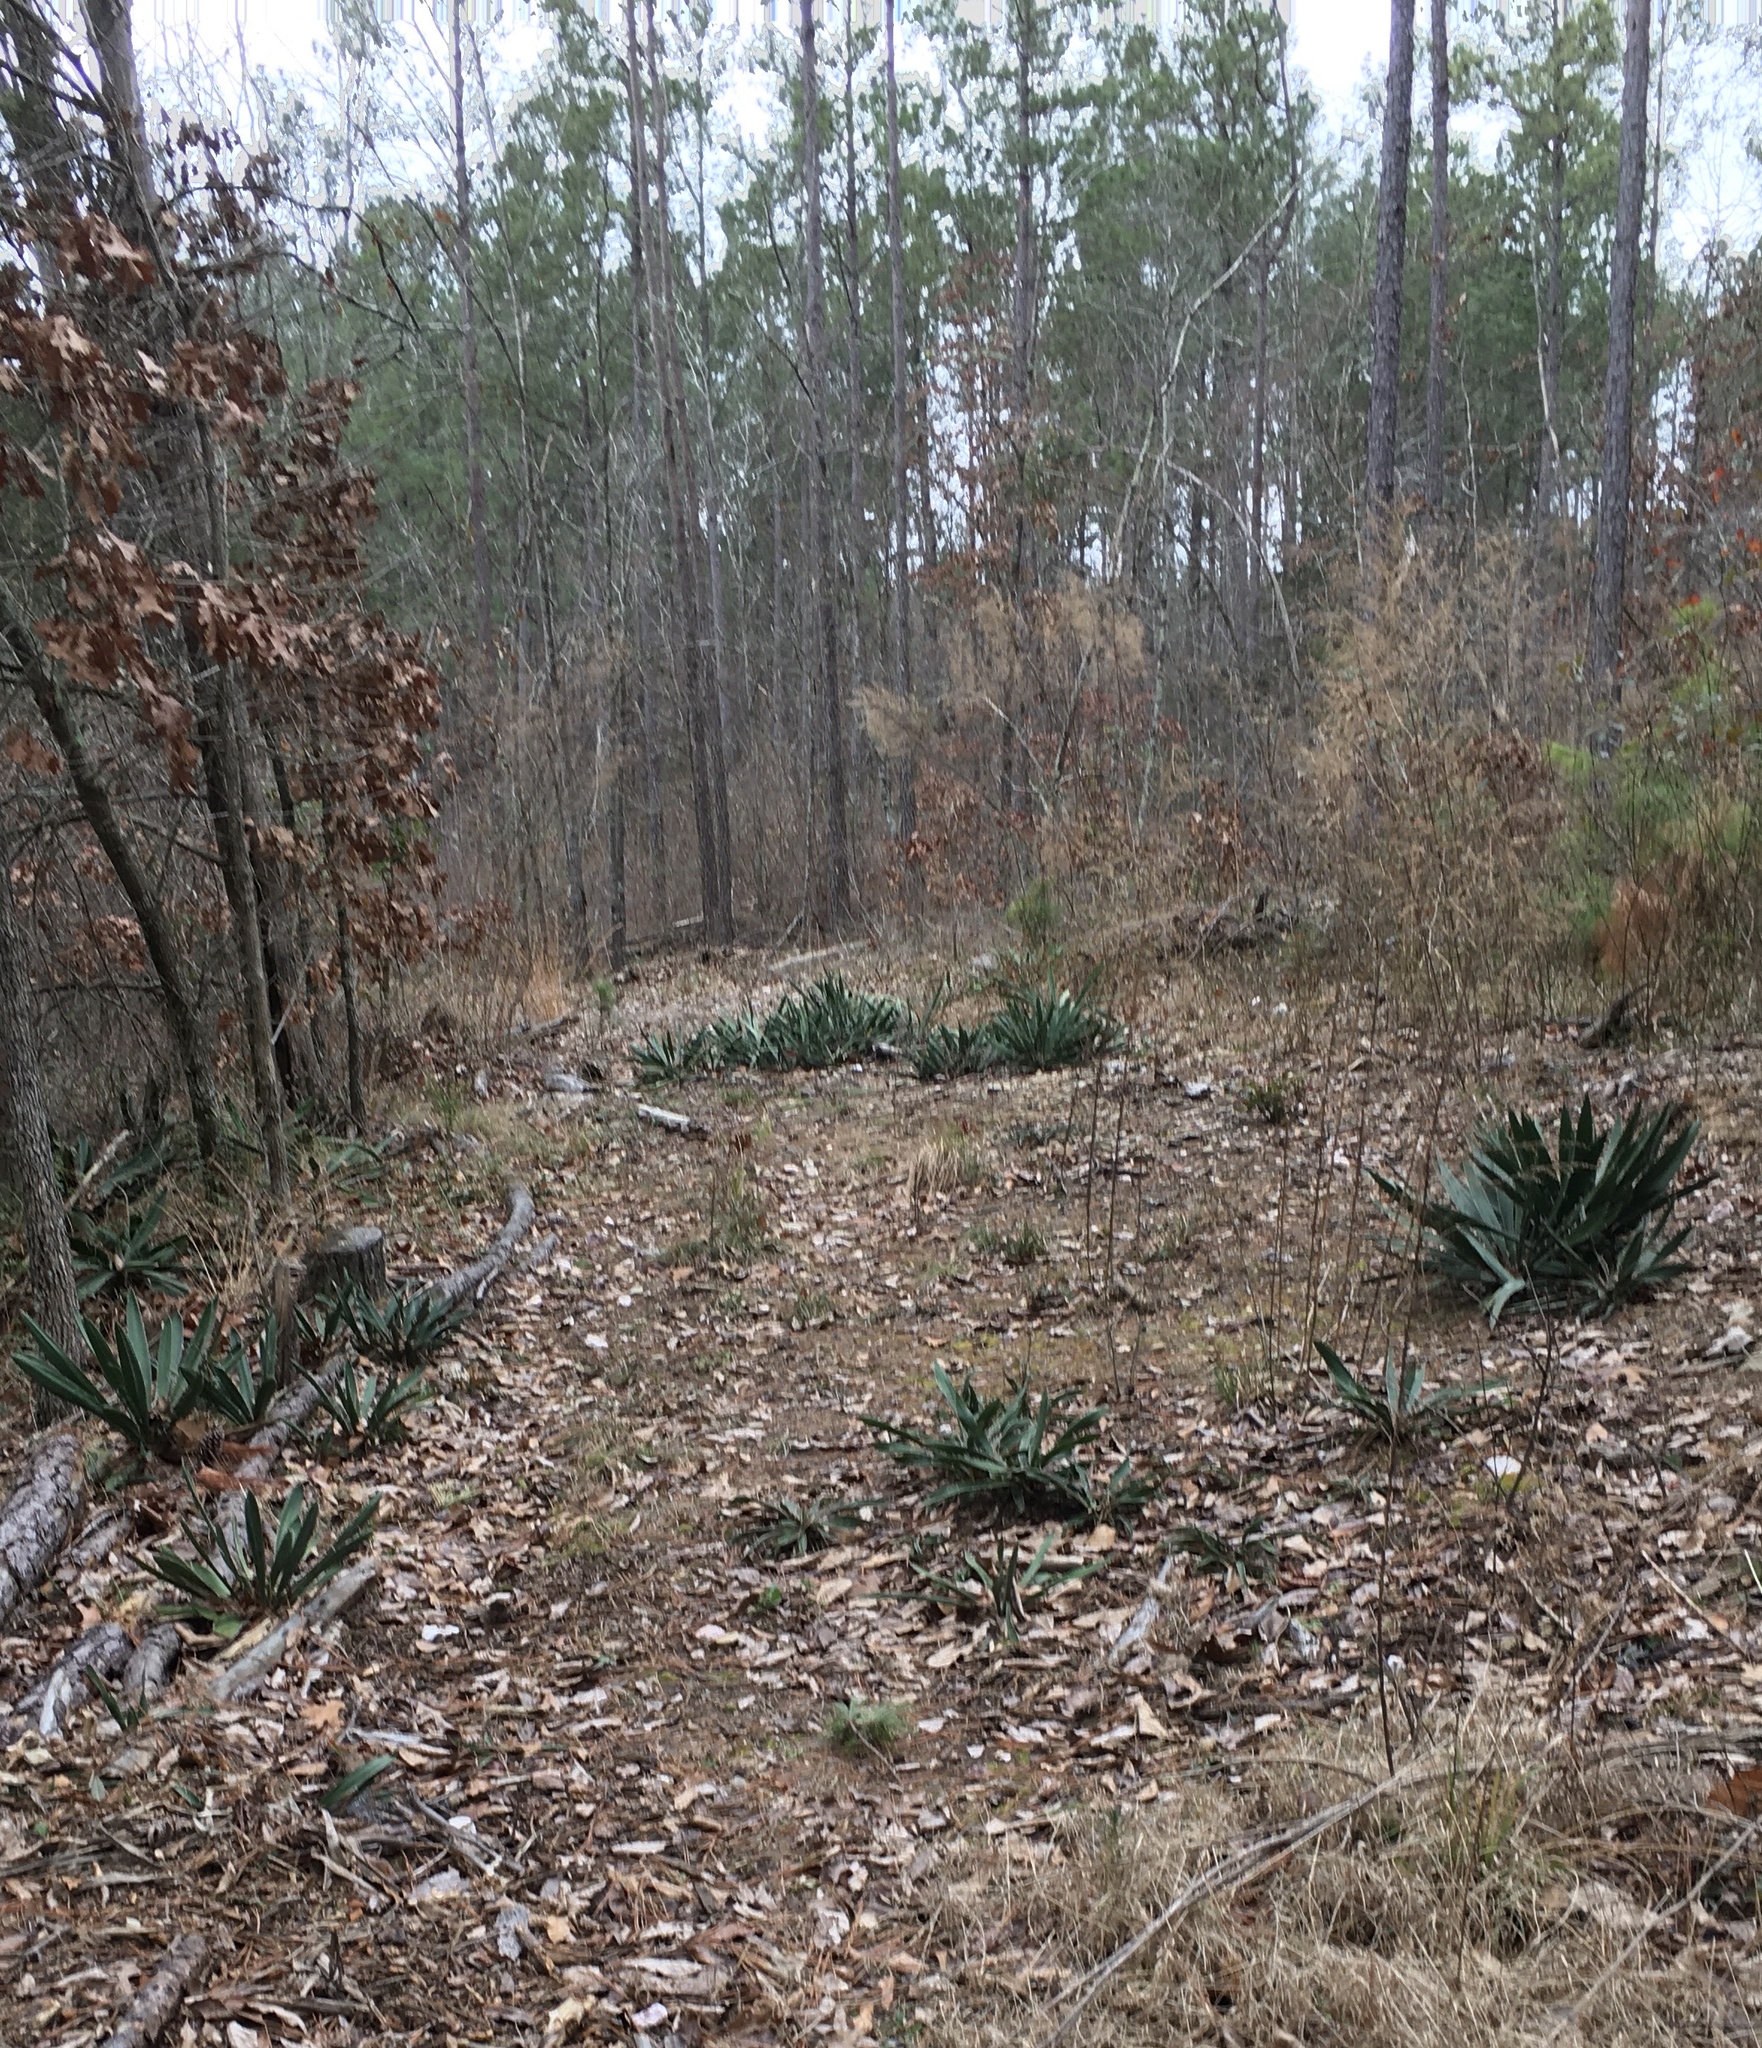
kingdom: Plantae
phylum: Tracheophyta
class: Liliopsida
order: Asparagales
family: Asparagaceae
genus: Yucca
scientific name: Yucca filamentosa
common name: Adam's-needle
